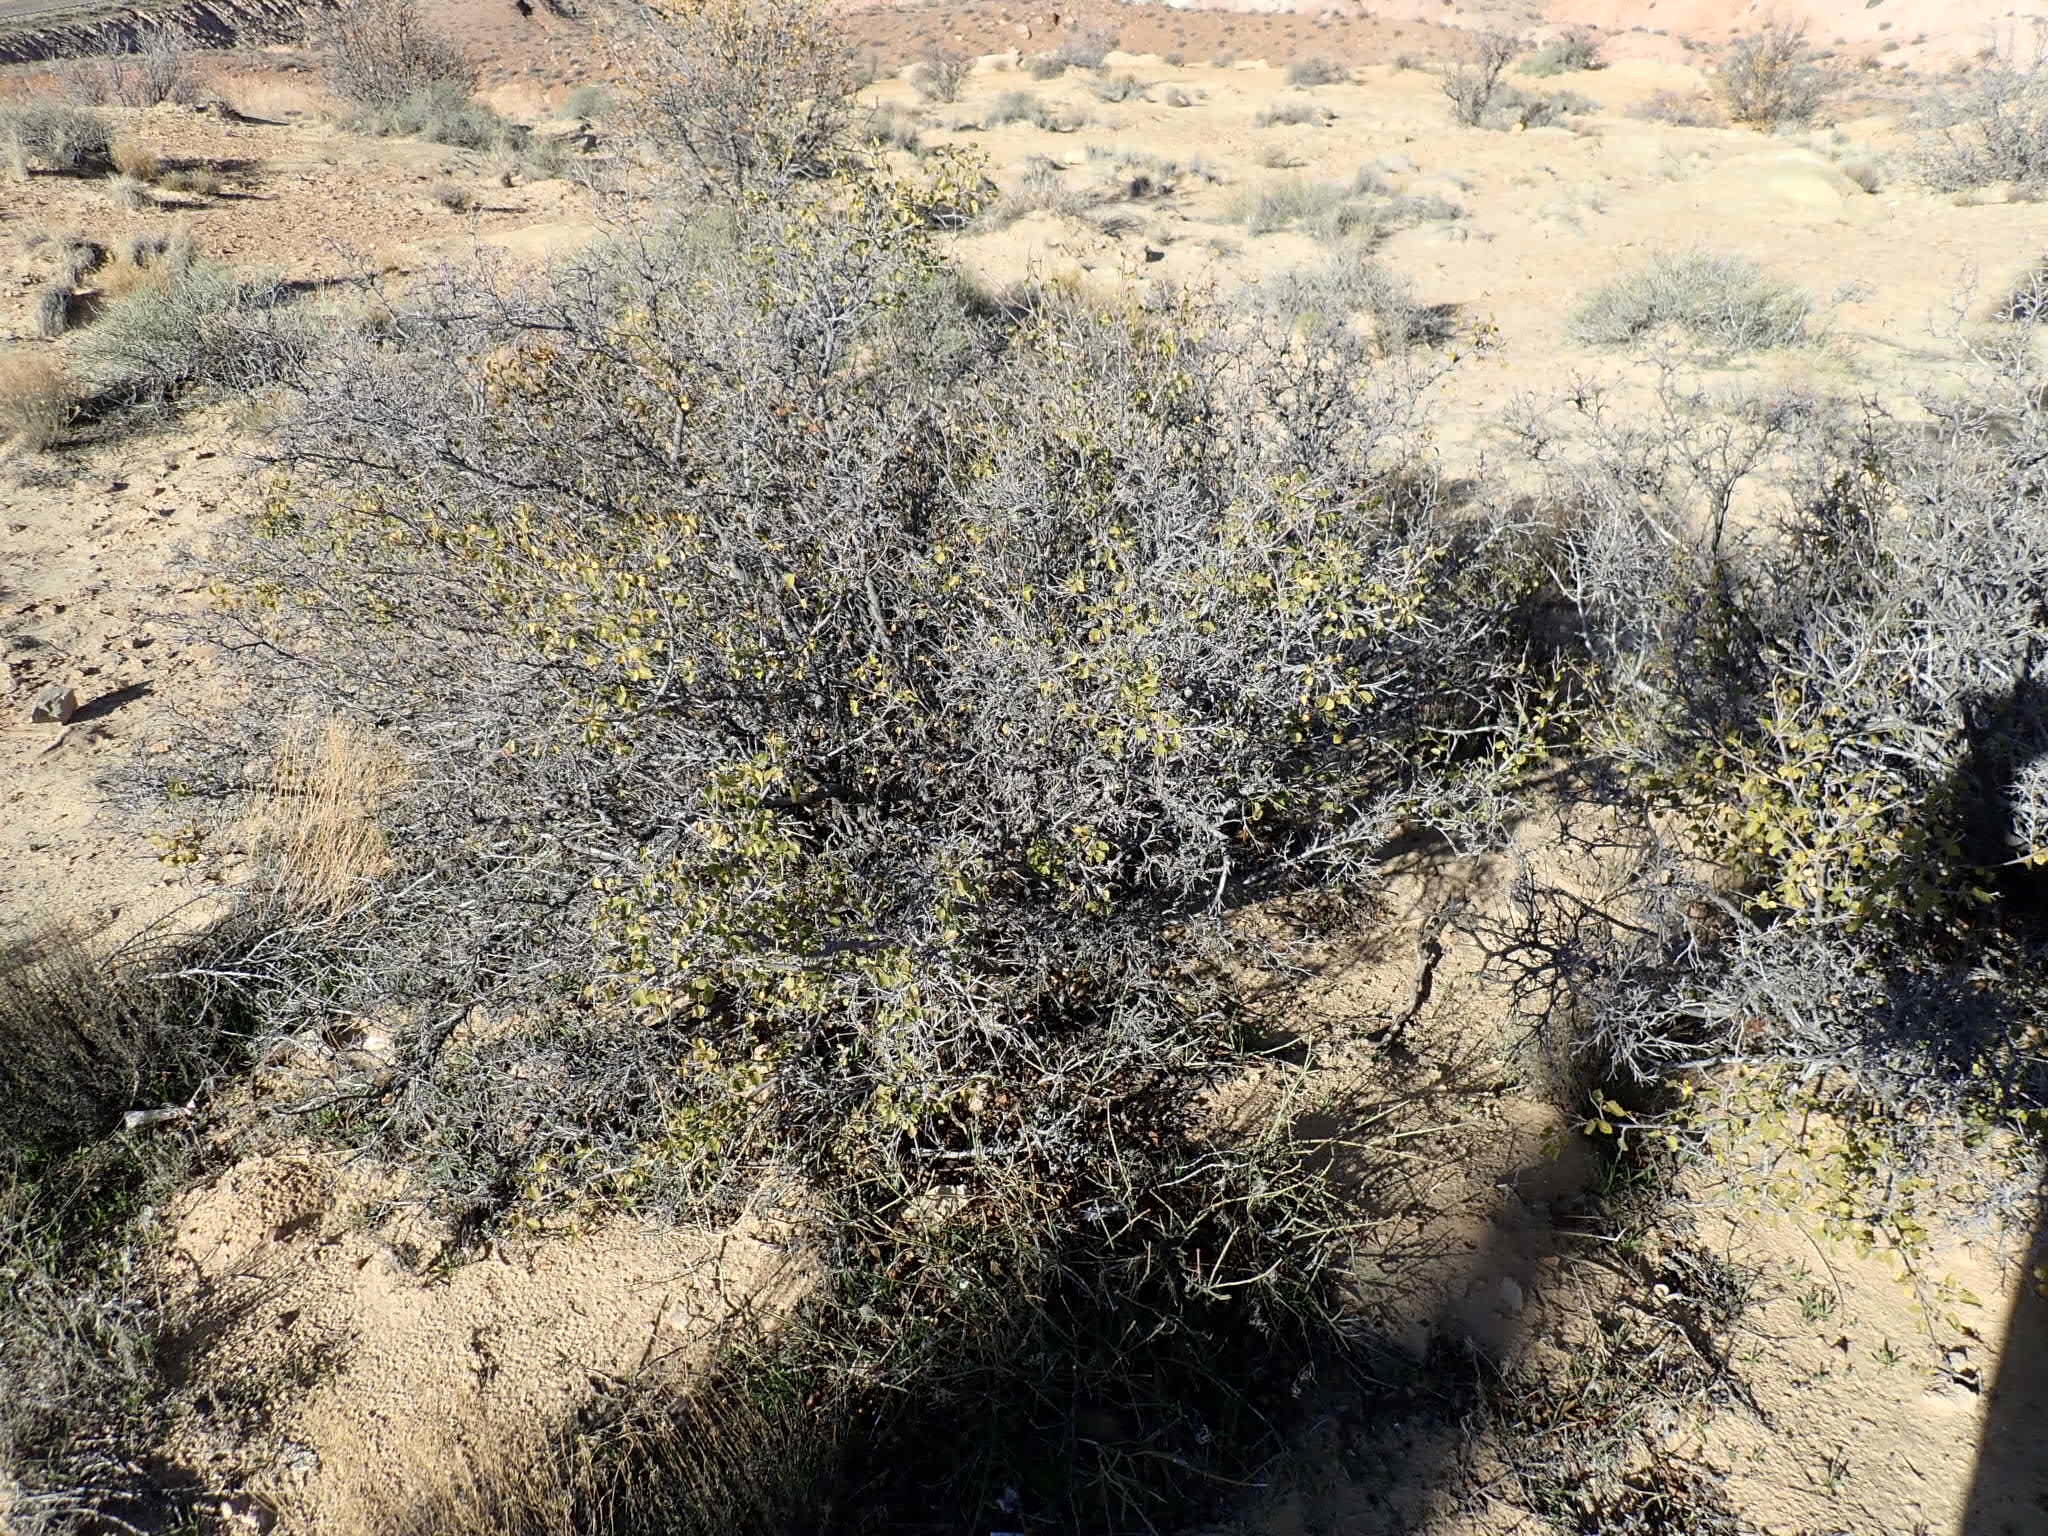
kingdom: Plantae
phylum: Tracheophyta
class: Magnoliopsida
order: Sapindales
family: Anacardiaceae
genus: Rhus
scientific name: Rhus aromatica
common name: Aromatic sumac
